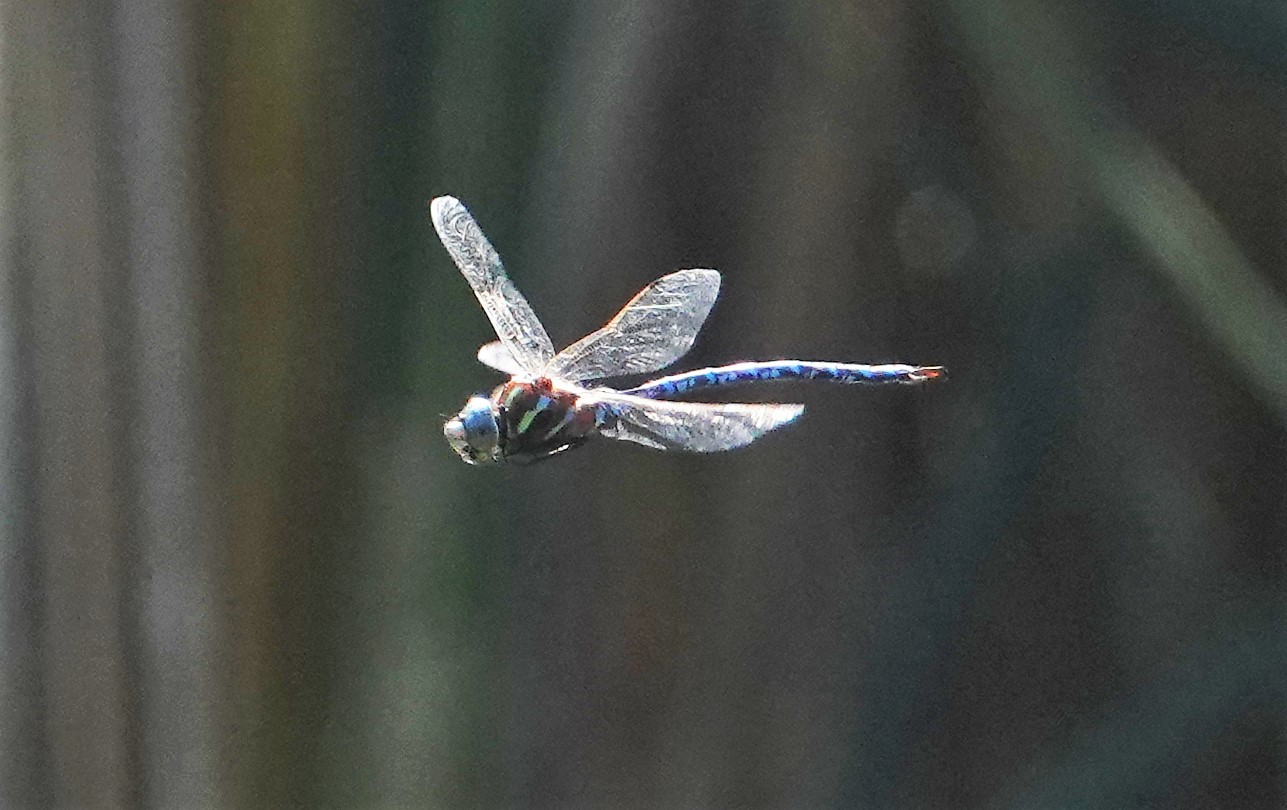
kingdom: Animalia
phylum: Arthropoda
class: Insecta
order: Odonata
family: Aeshnidae
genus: Aeshna
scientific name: Aeshna constricta
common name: Lance-tipped darner
